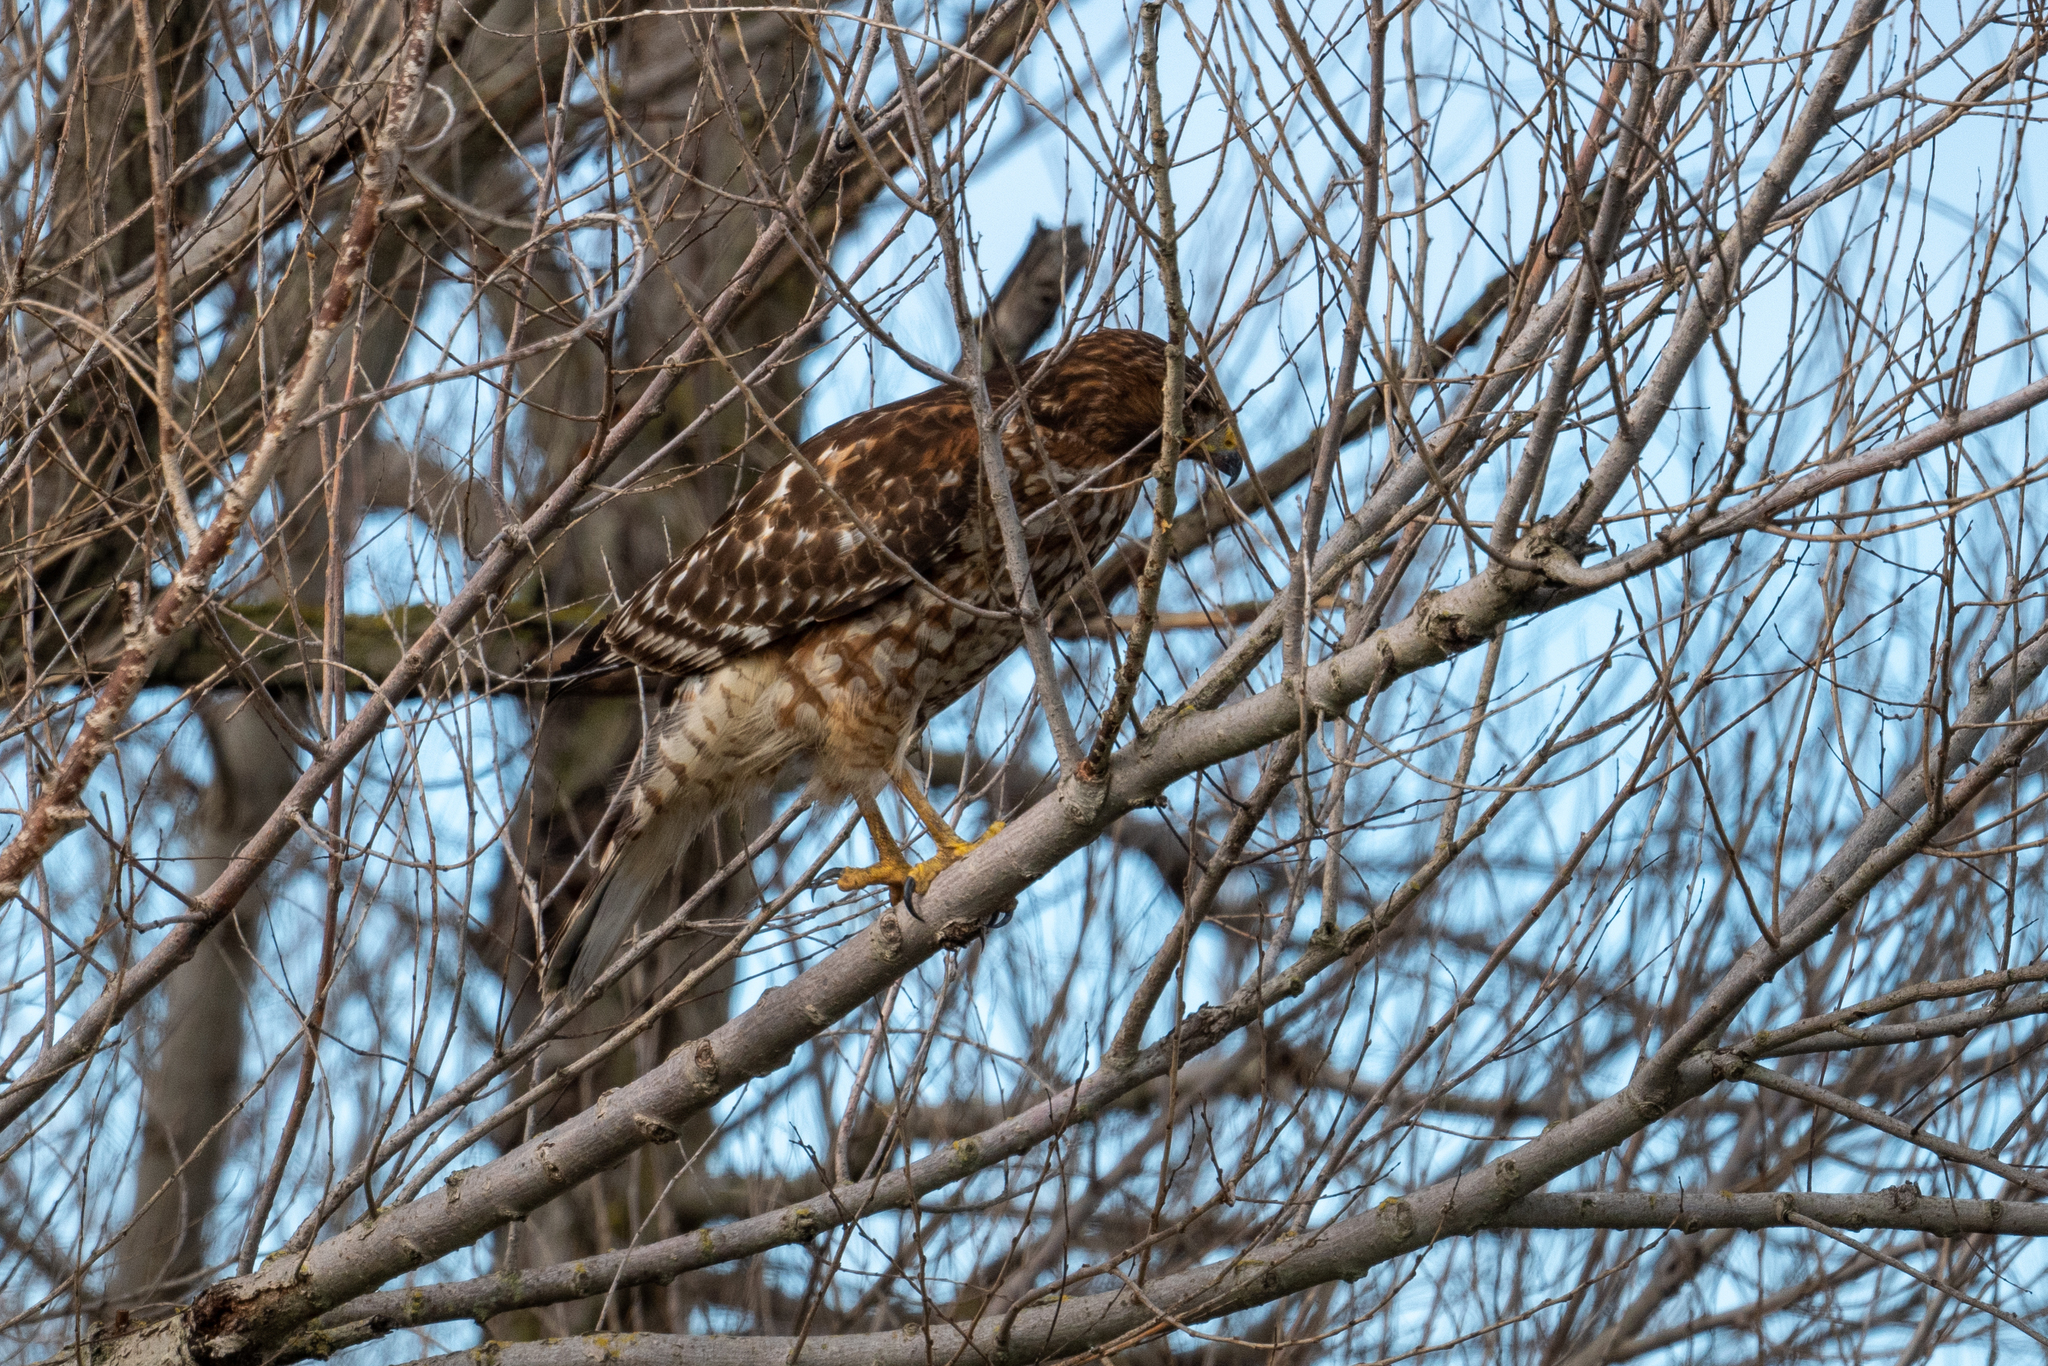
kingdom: Animalia
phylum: Chordata
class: Aves
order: Accipitriformes
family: Accipitridae
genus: Buteo
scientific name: Buteo lineatus
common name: Red-shouldered hawk
